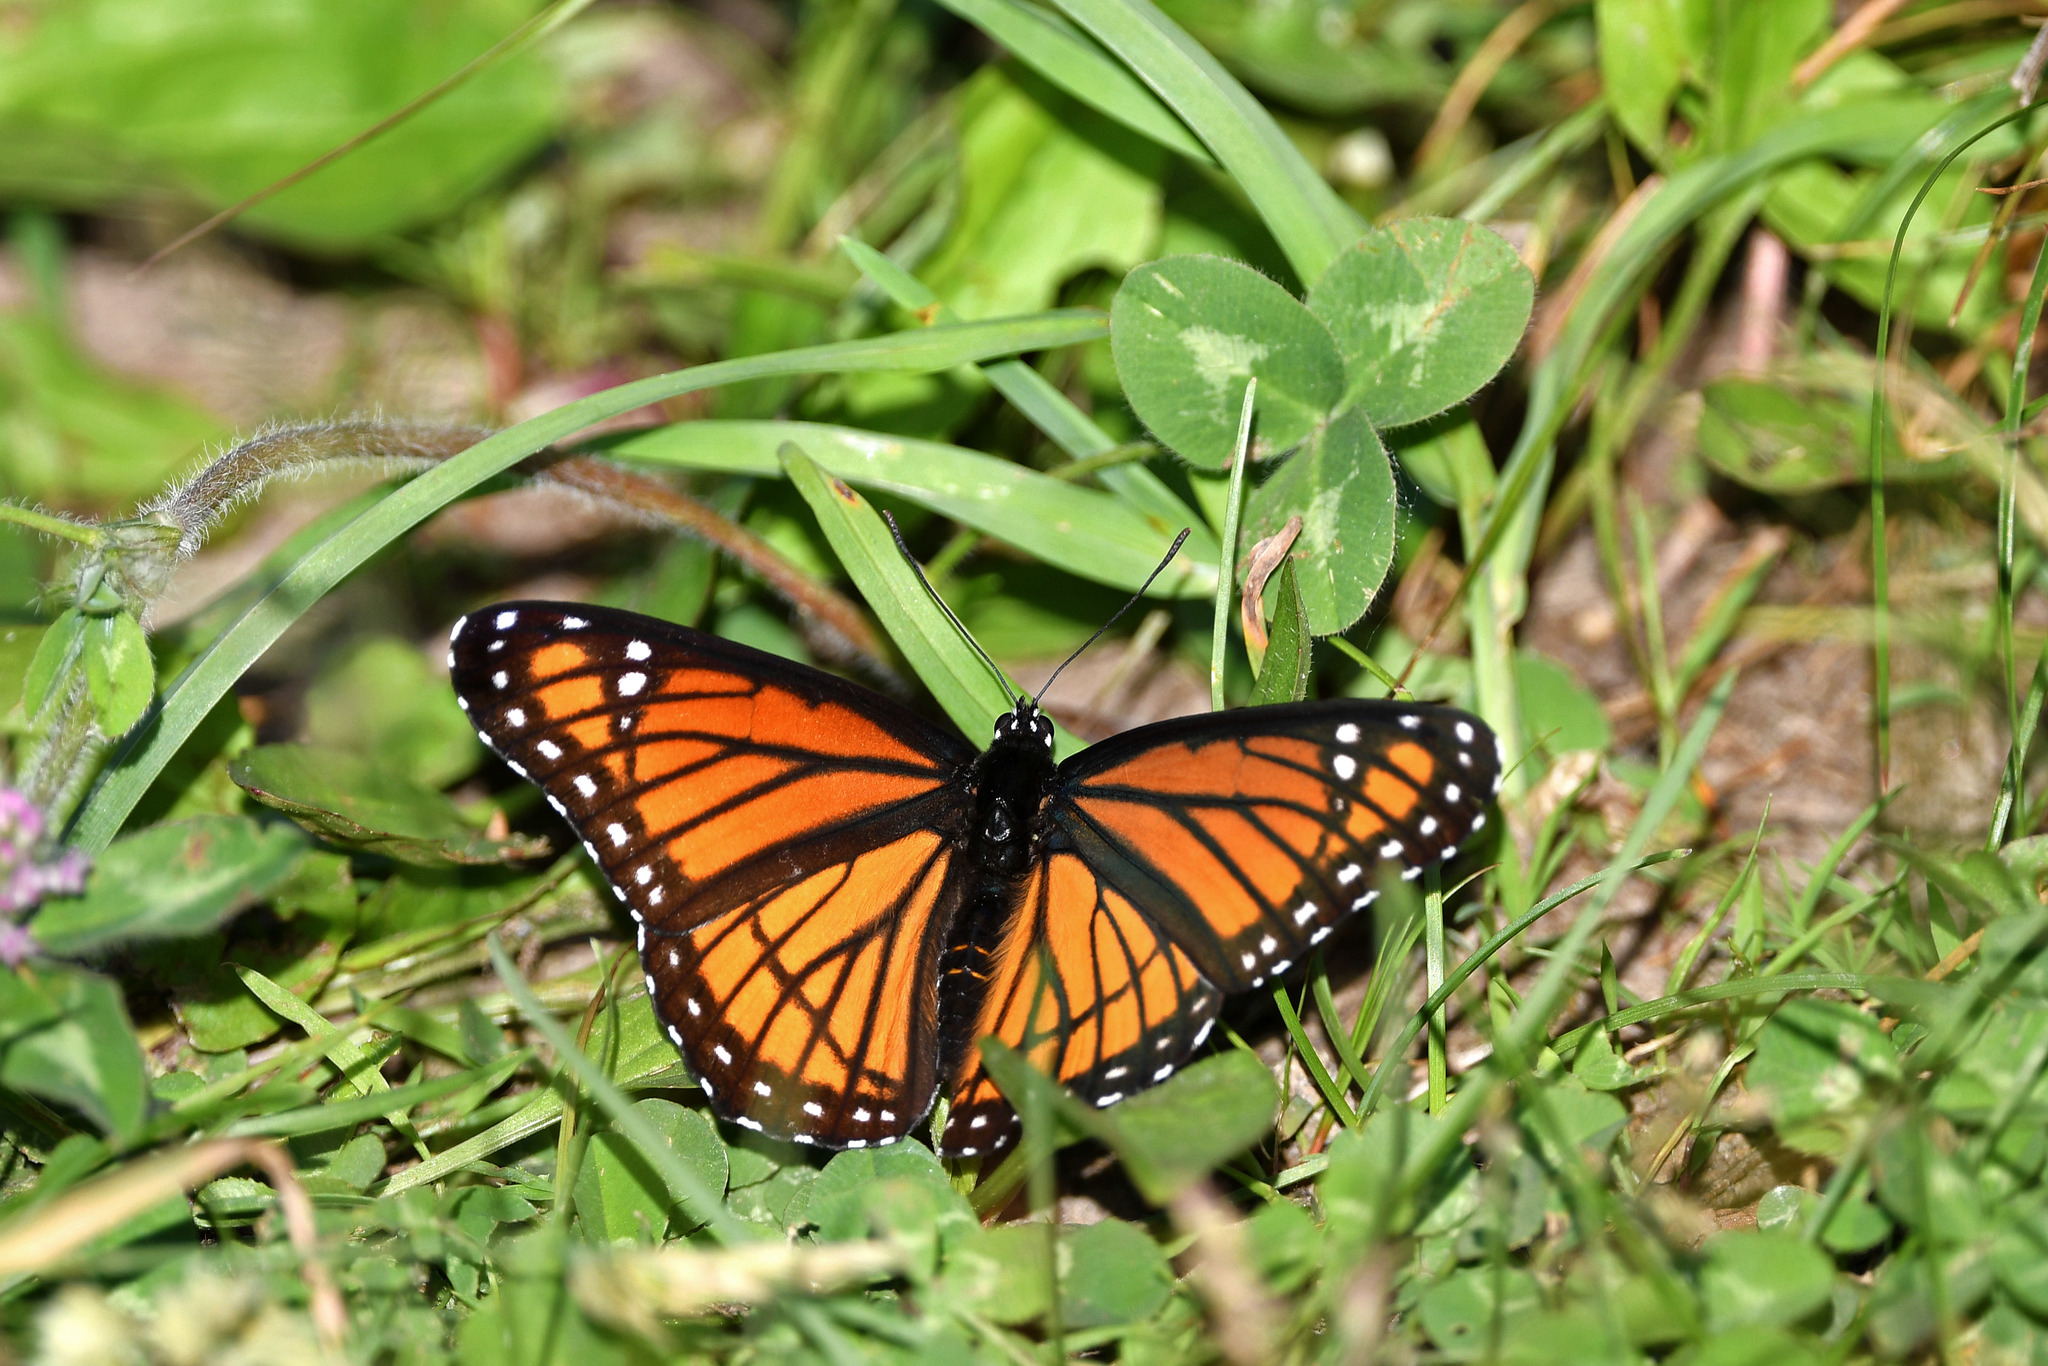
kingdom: Animalia
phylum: Arthropoda
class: Insecta
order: Lepidoptera
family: Nymphalidae
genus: Limenitis
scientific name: Limenitis archippus
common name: Viceroy
